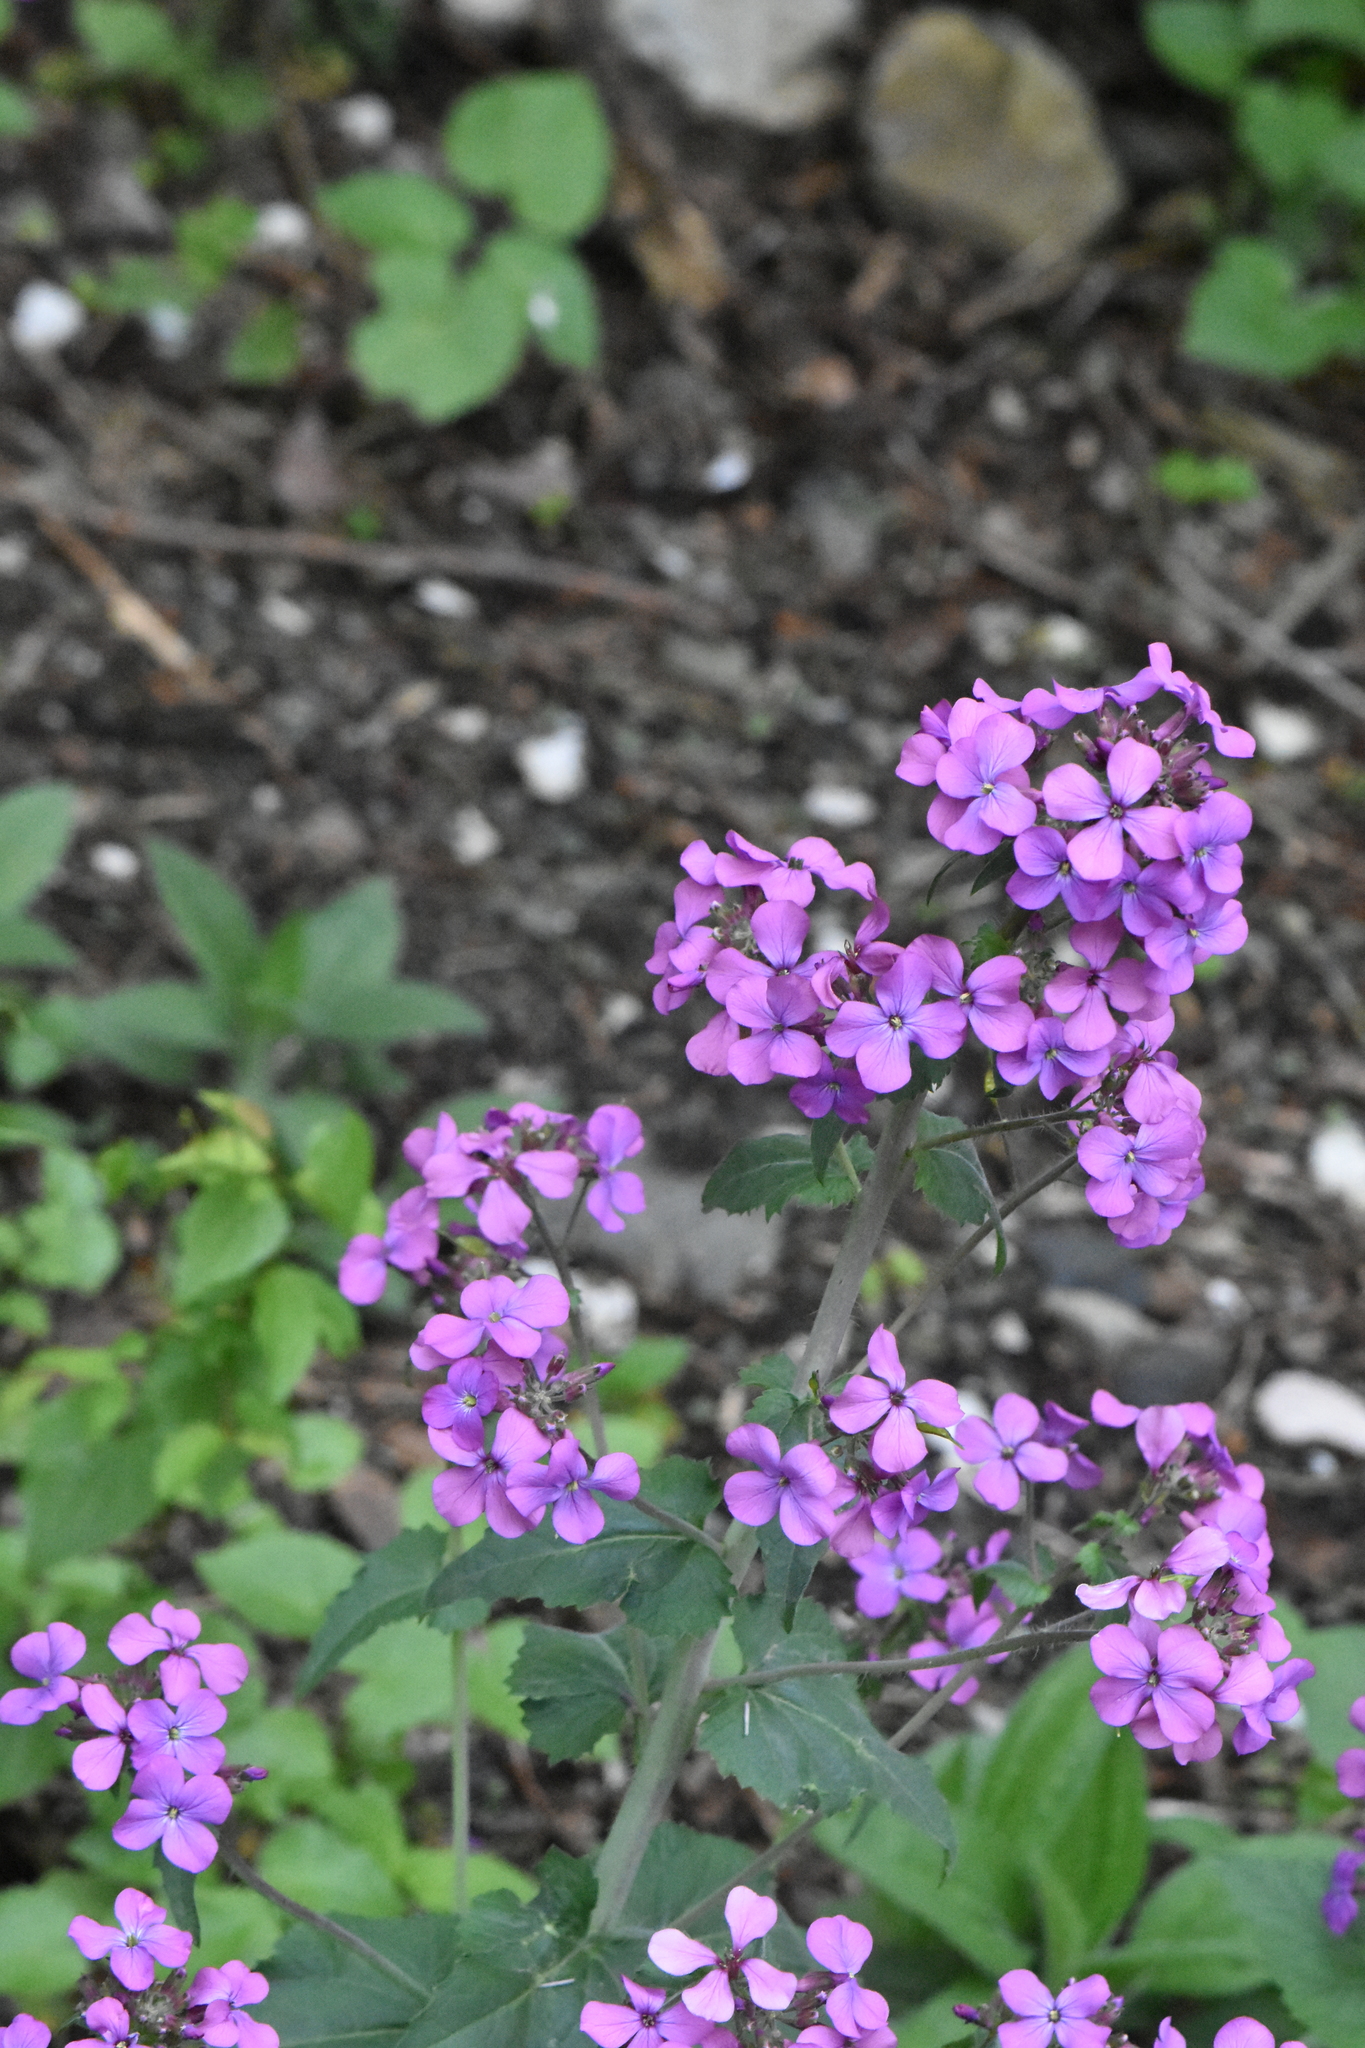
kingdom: Plantae
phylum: Tracheophyta
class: Magnoliopsida
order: Brassicales
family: Brassicaceae
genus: Lunaria
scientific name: Lunaria annua
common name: Honesty
